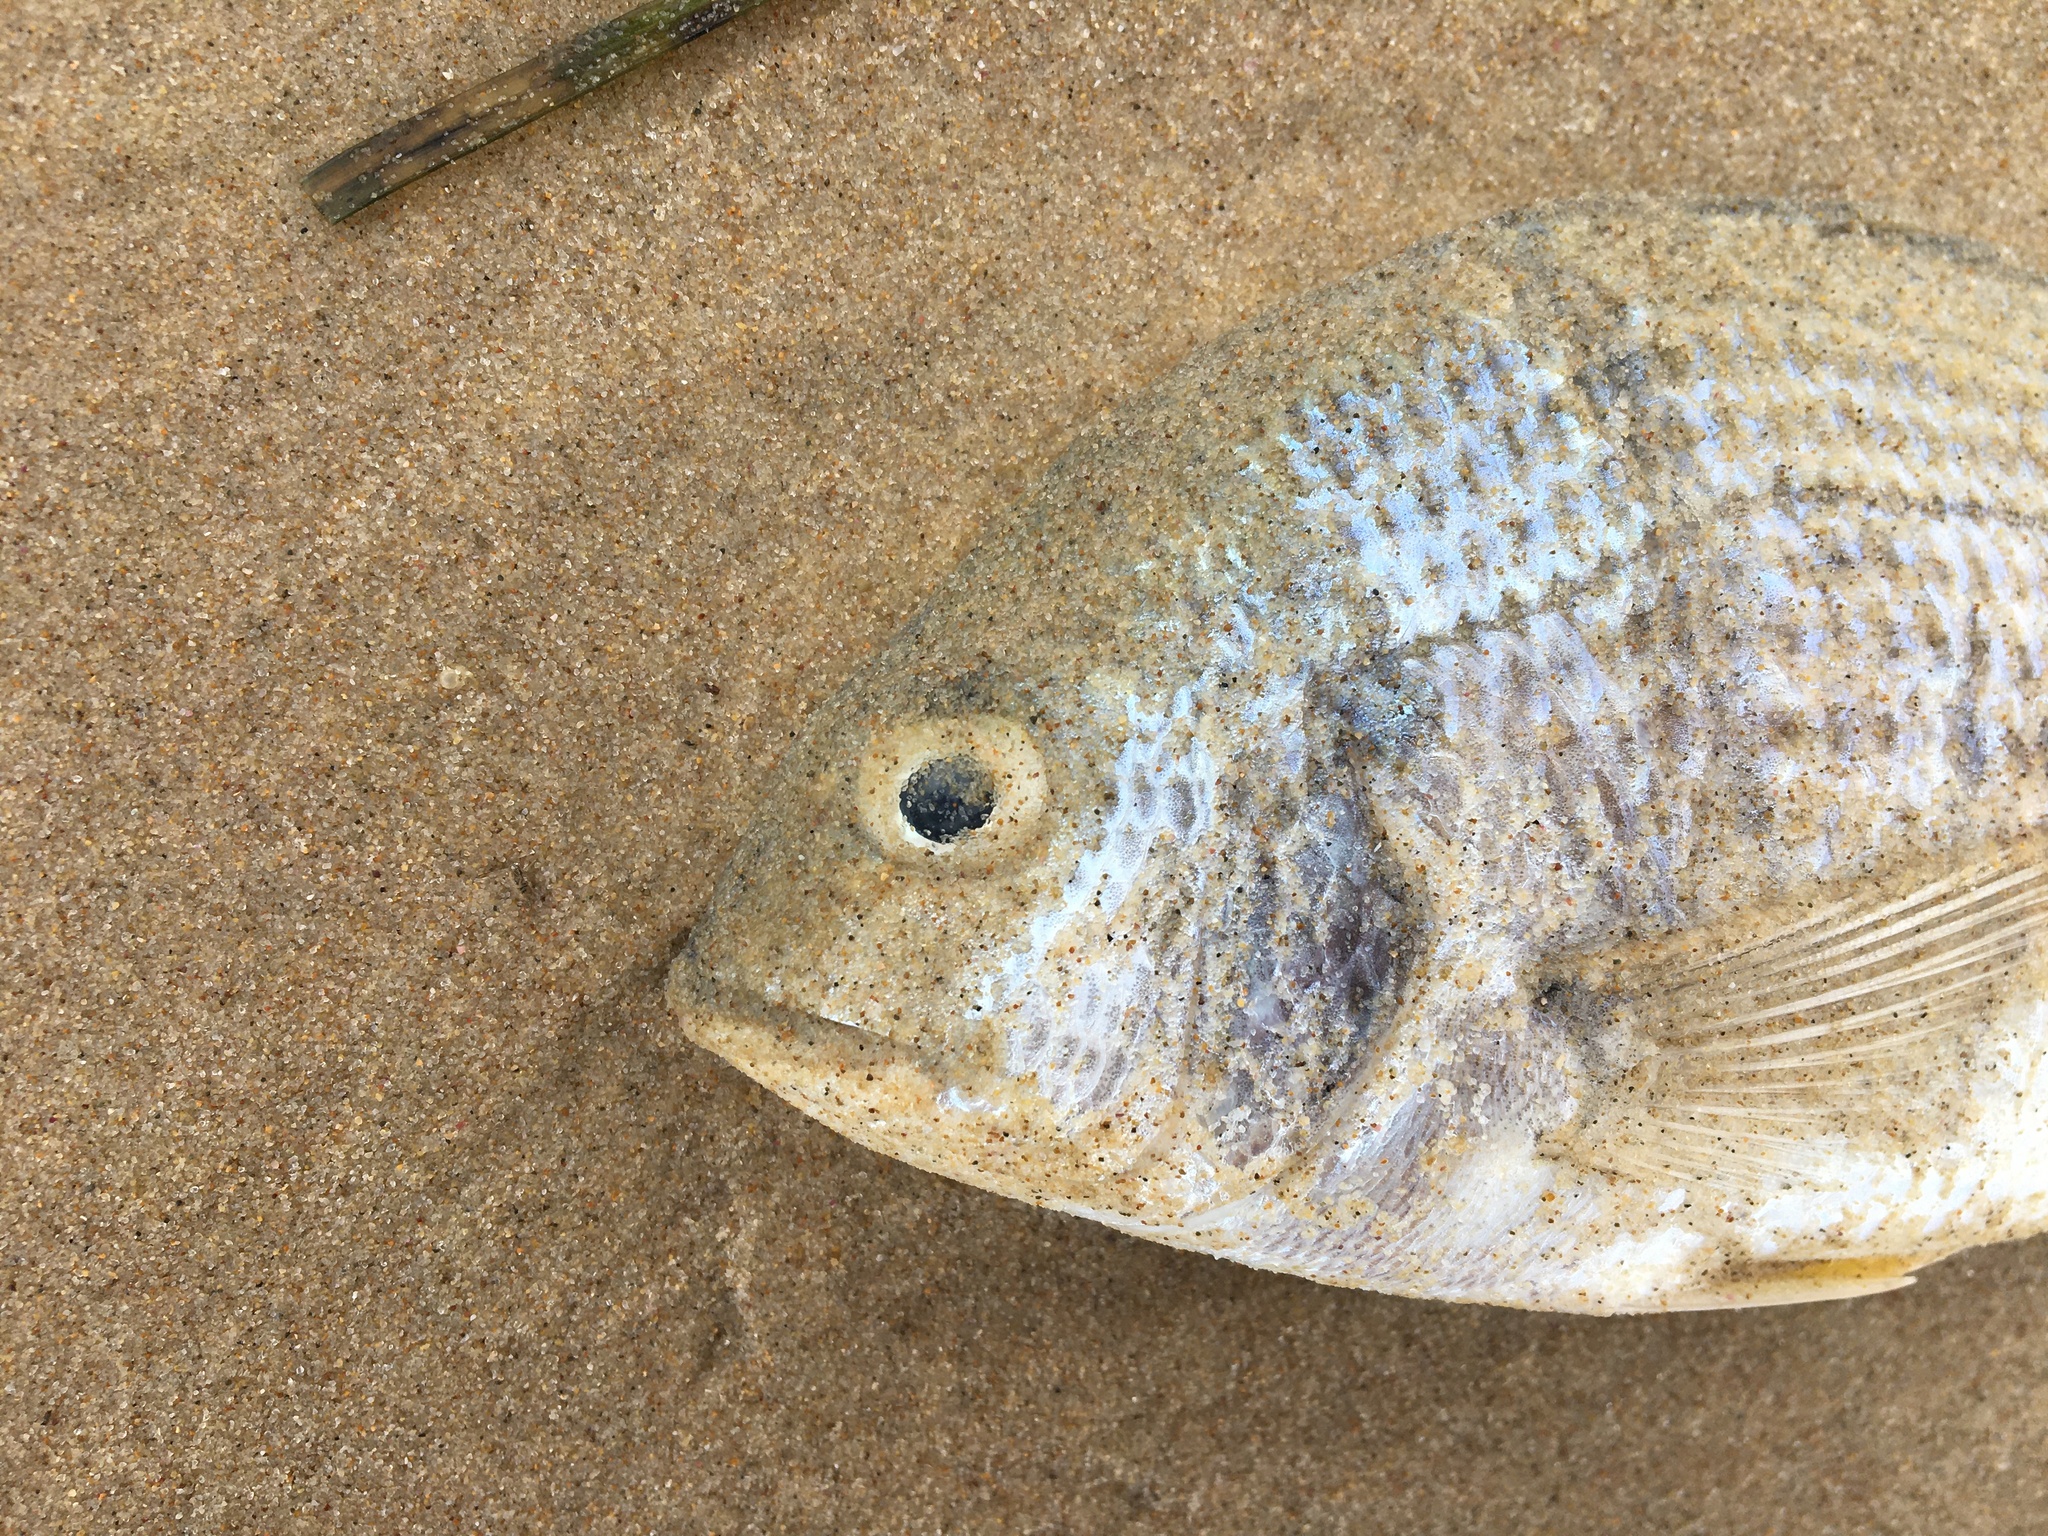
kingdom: Animalia
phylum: Chordata
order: Perciformes
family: Sparidae
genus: Acanthopagrus
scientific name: Acanthopagrus australis
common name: Surf bream
